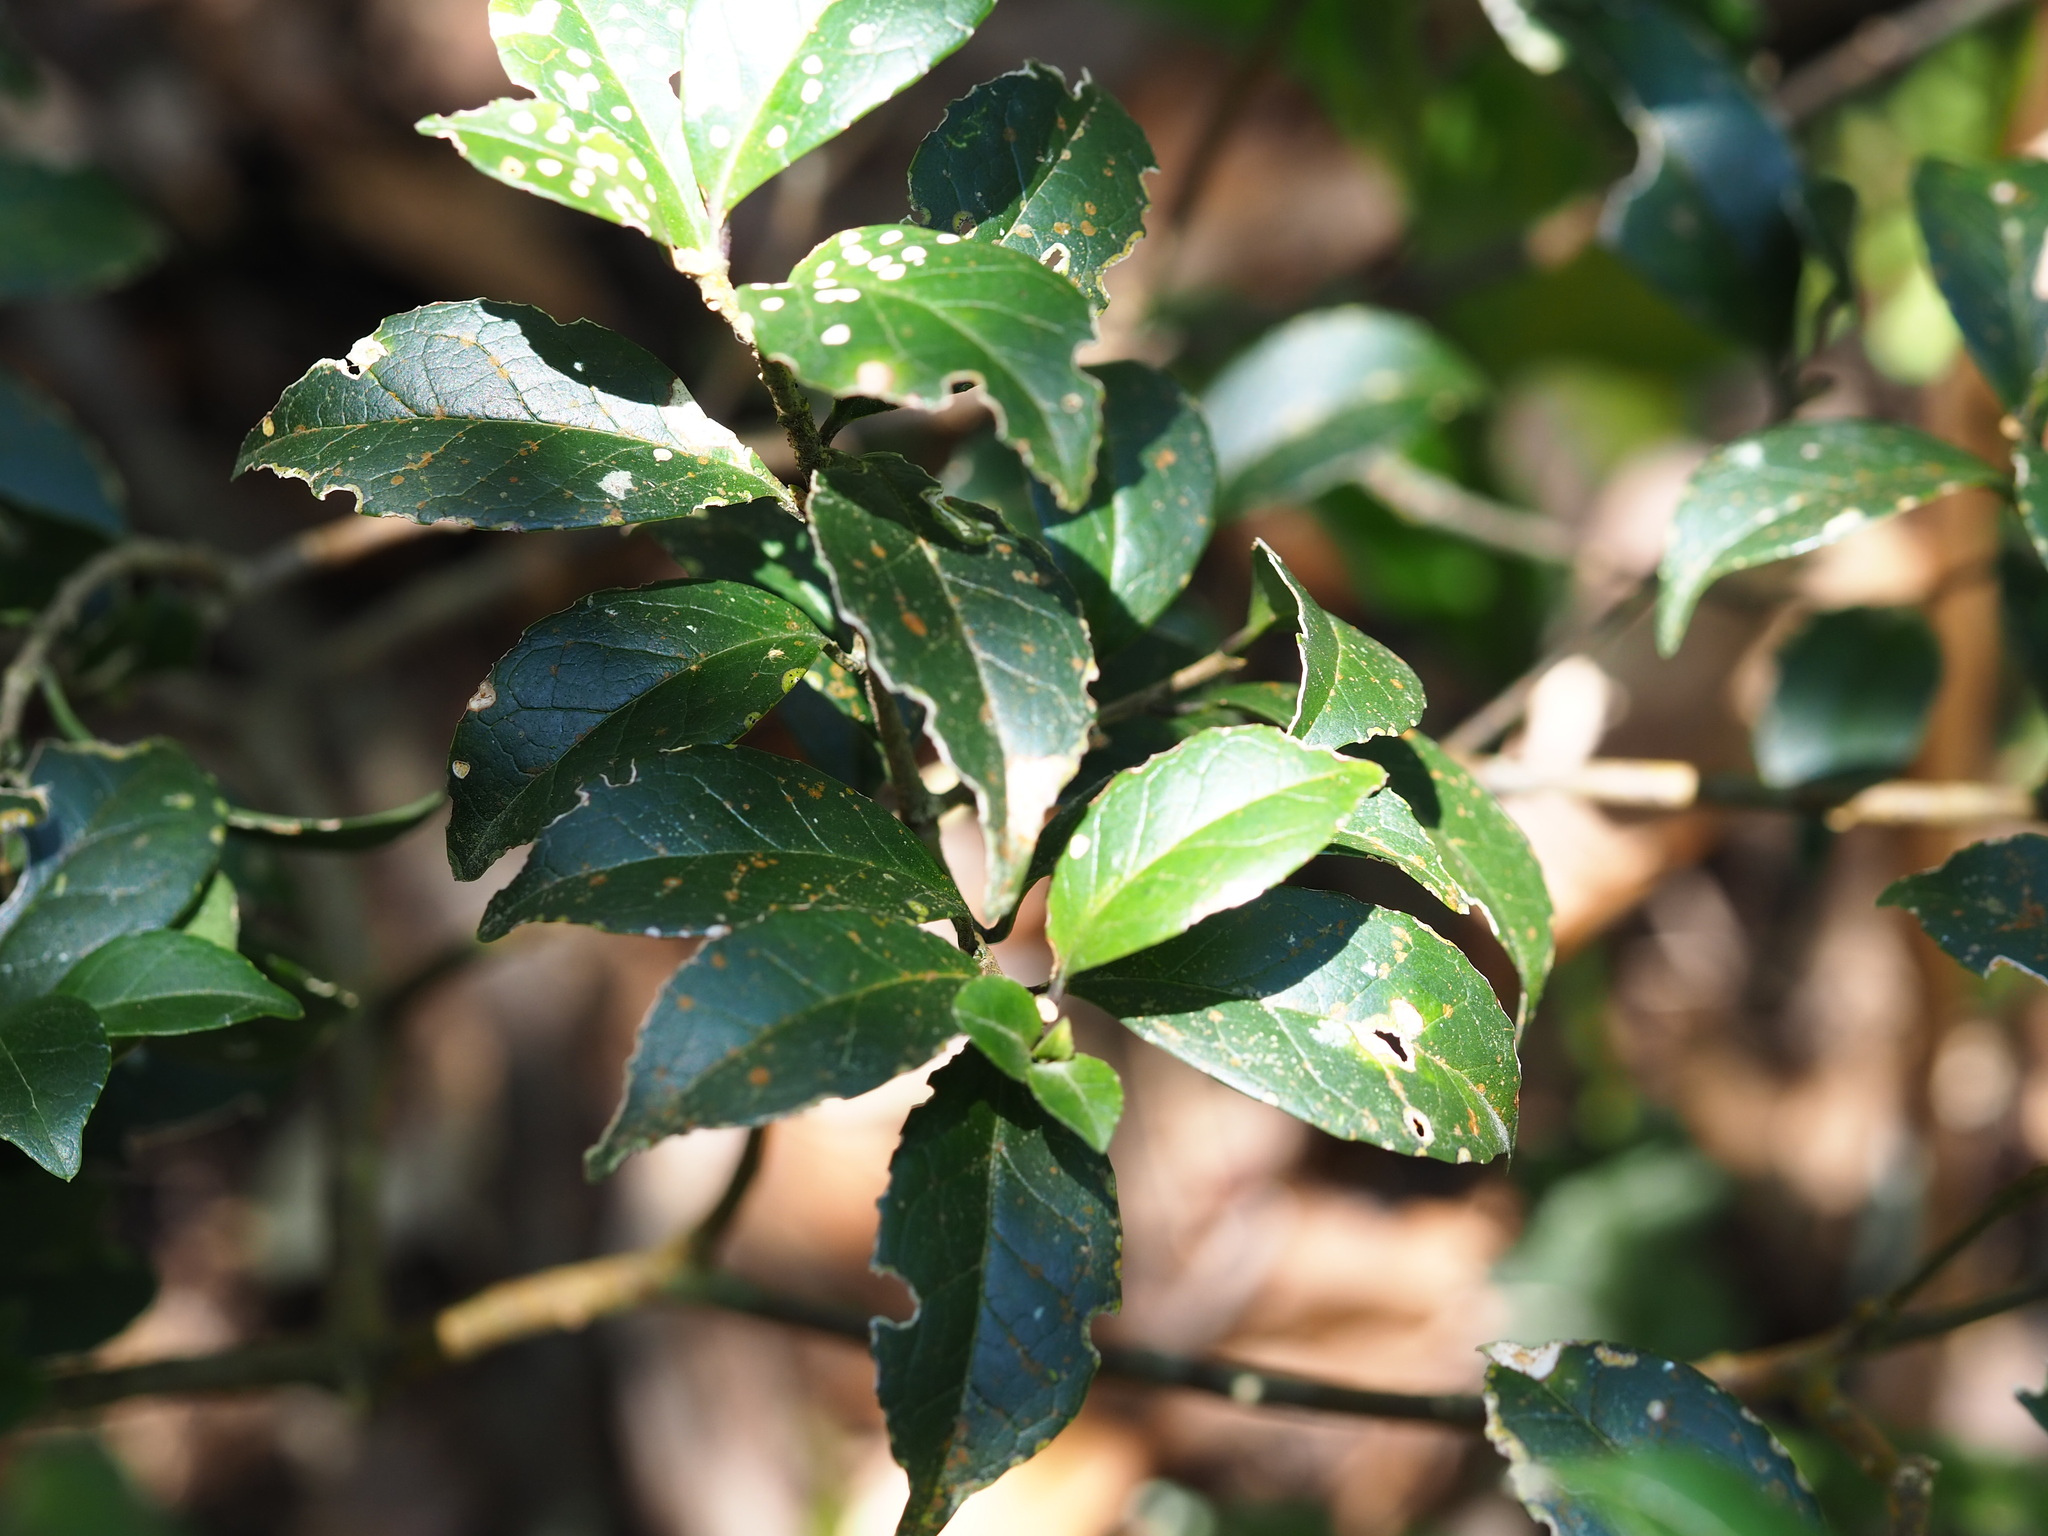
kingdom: Plantae
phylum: Tracheophyta
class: Magnoliopsida
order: Ericales
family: Symplocaceae
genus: Symplocos
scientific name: Symplocos sumuntia
